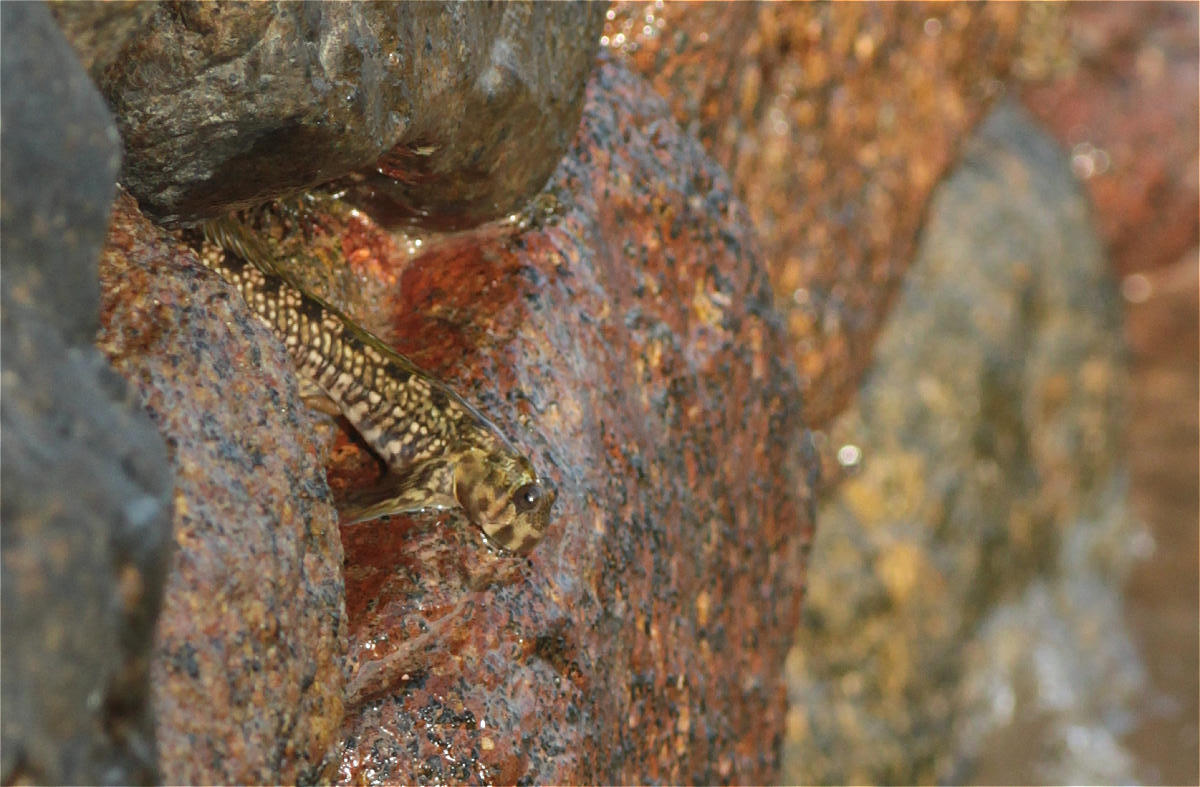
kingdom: Animalia
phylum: Chordata
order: Perciformes
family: Blenniidae
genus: Alticus
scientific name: Alticus magnusi
